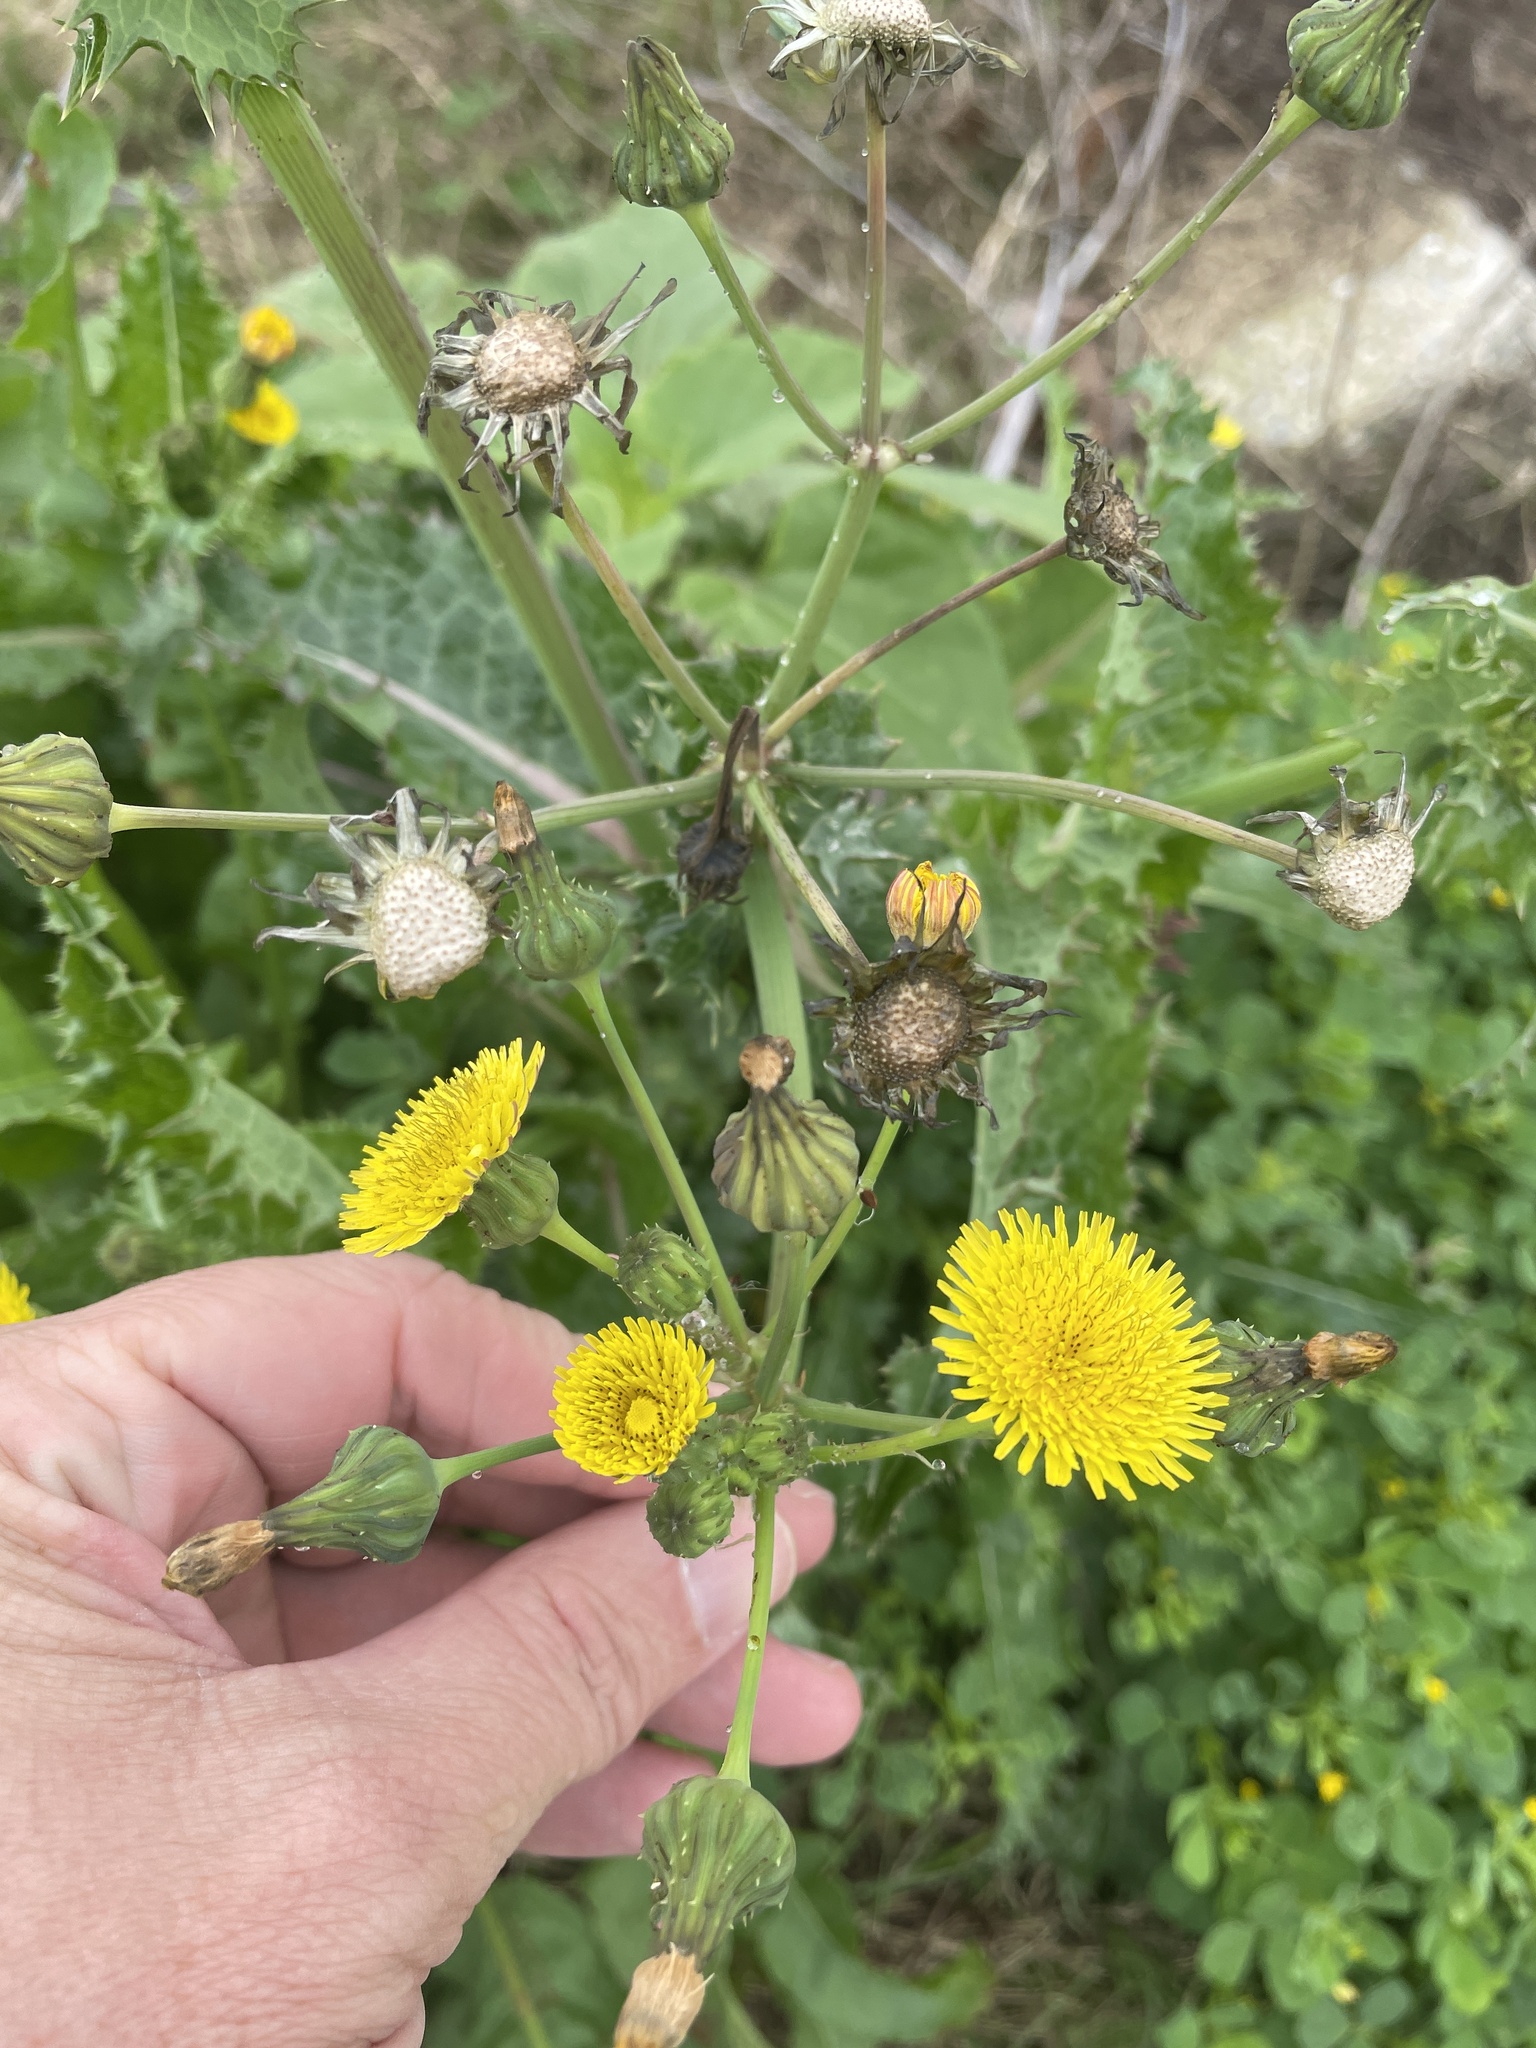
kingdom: Plantae
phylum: Tracheophyta
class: Magnoliopsida
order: Asterales
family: Asteraceae
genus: Sonchus
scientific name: Sonchus oleraceus
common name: Common sowthistle
